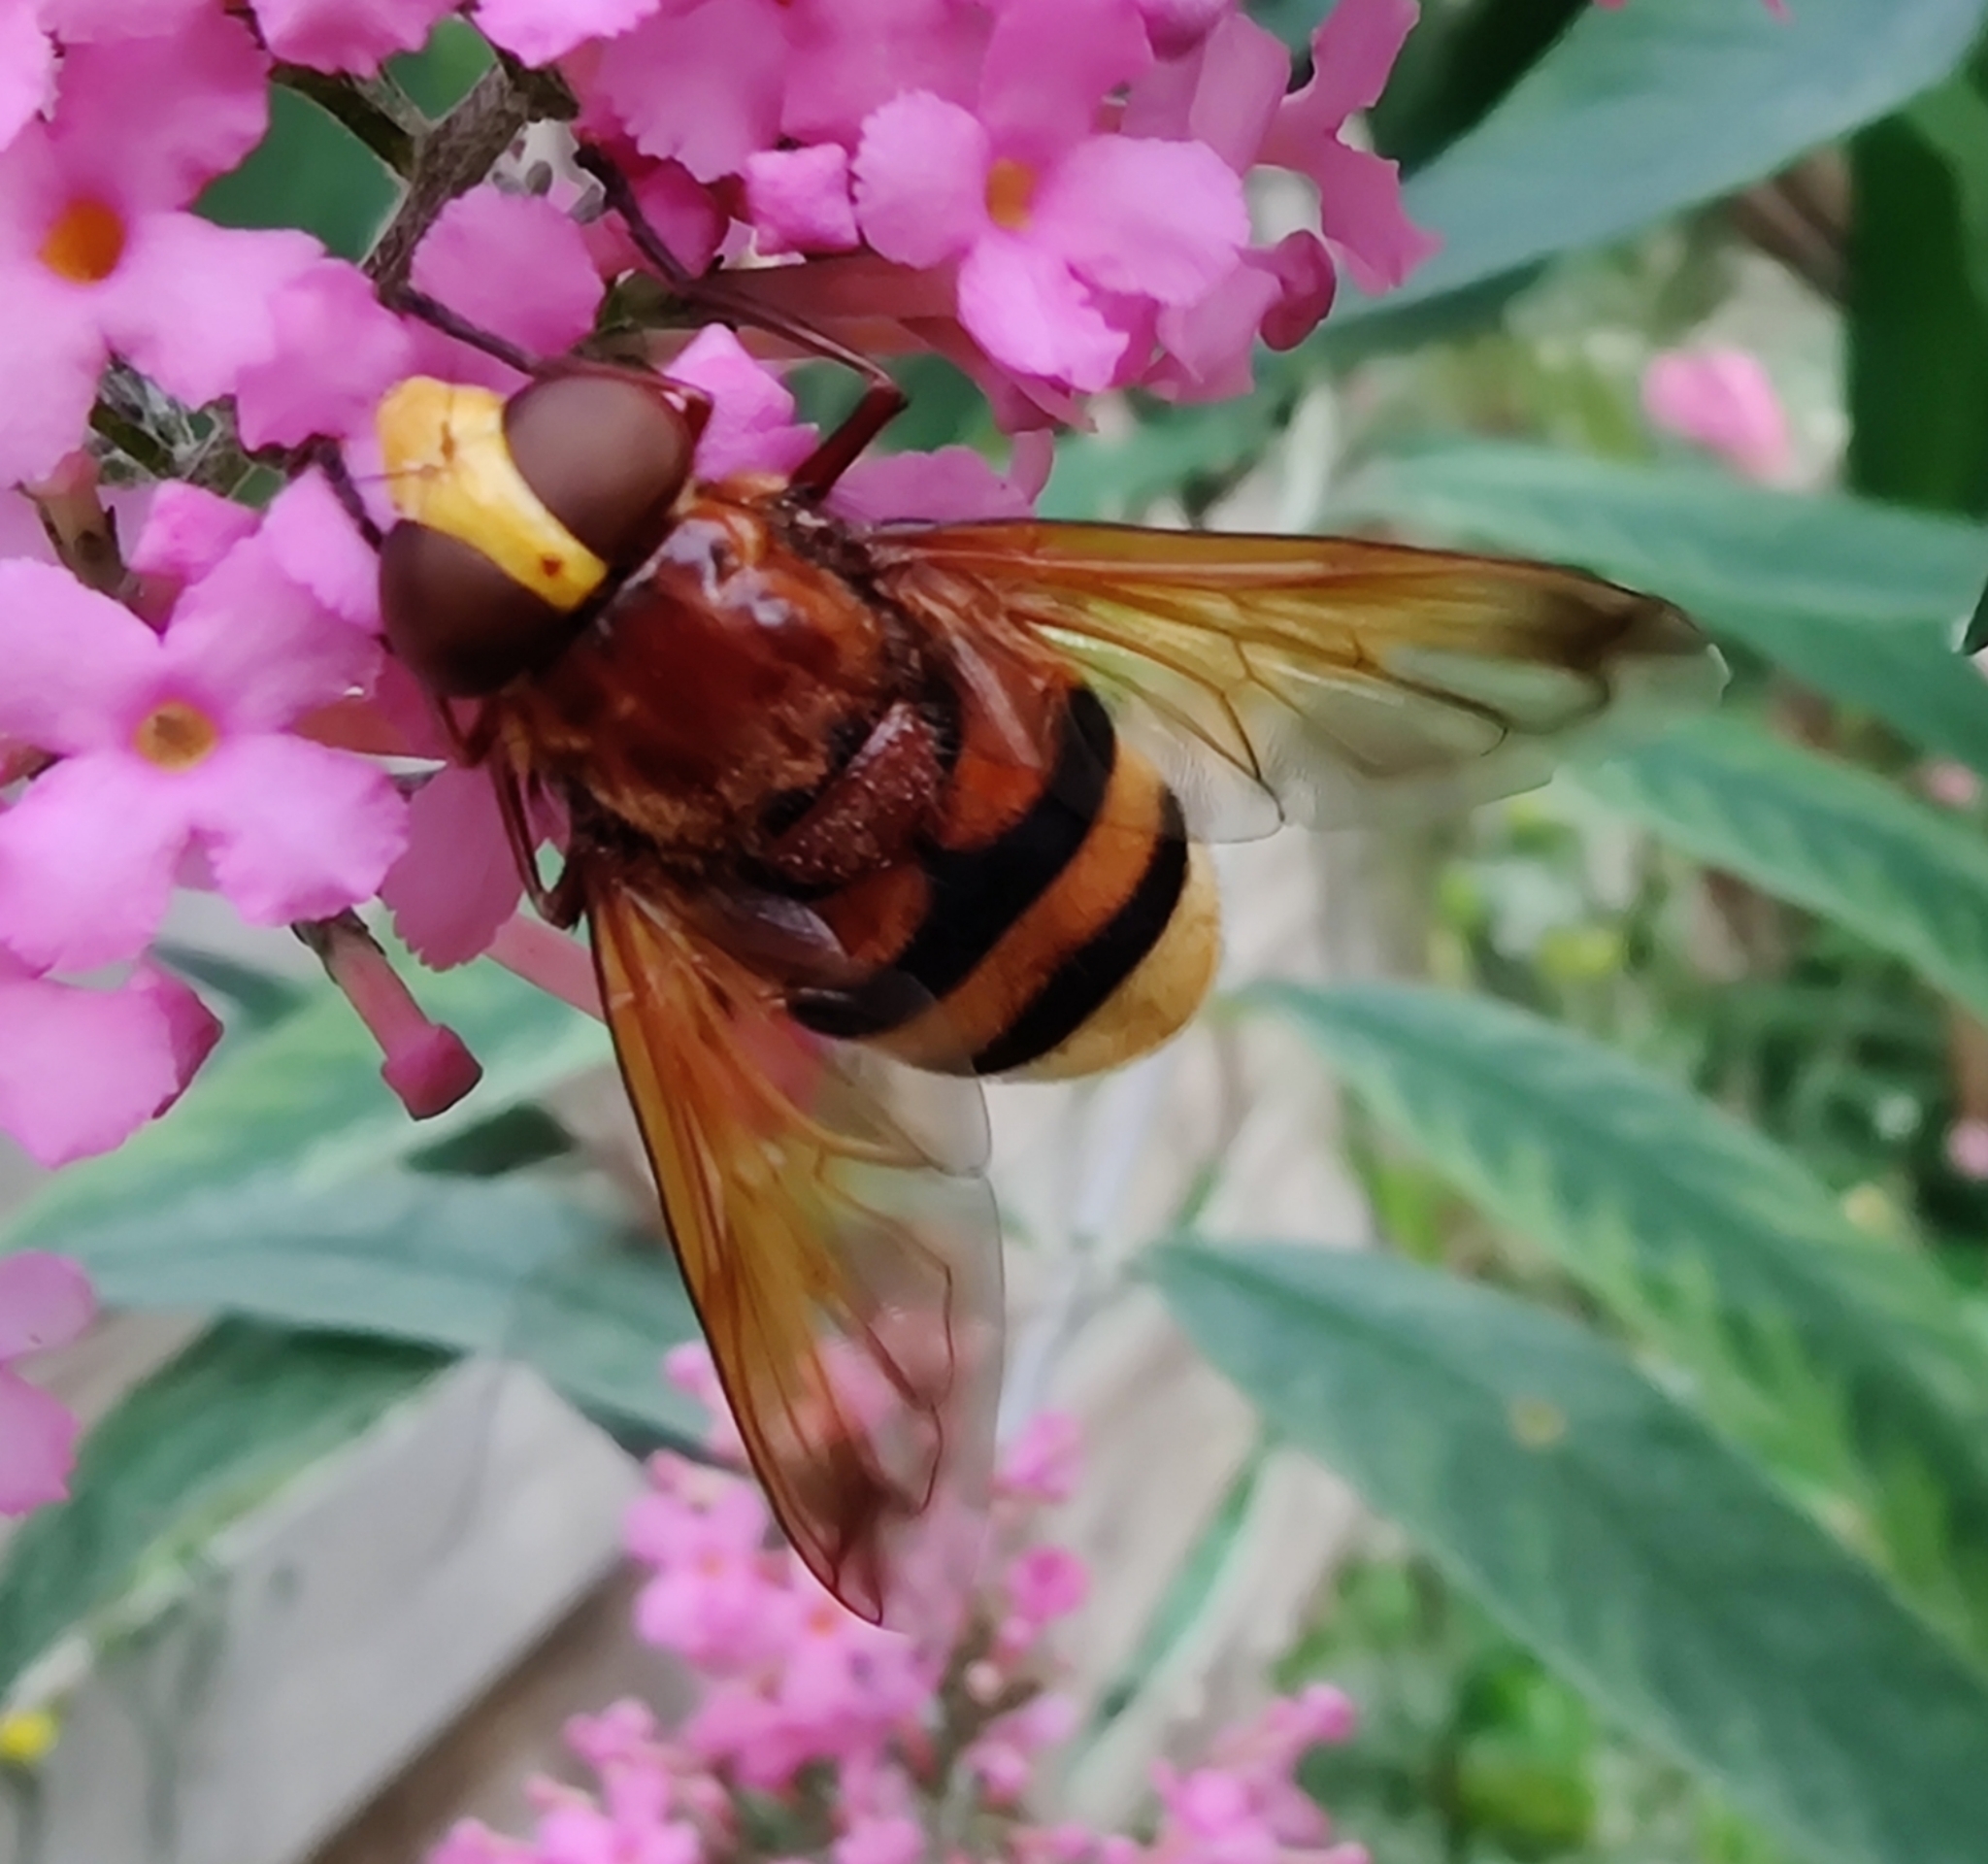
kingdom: Animalia
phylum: Arthropoda
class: Insecta
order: Diptera
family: Syrphidae
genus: Volucella
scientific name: Volucella zonaria
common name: Hornet hoverfly
